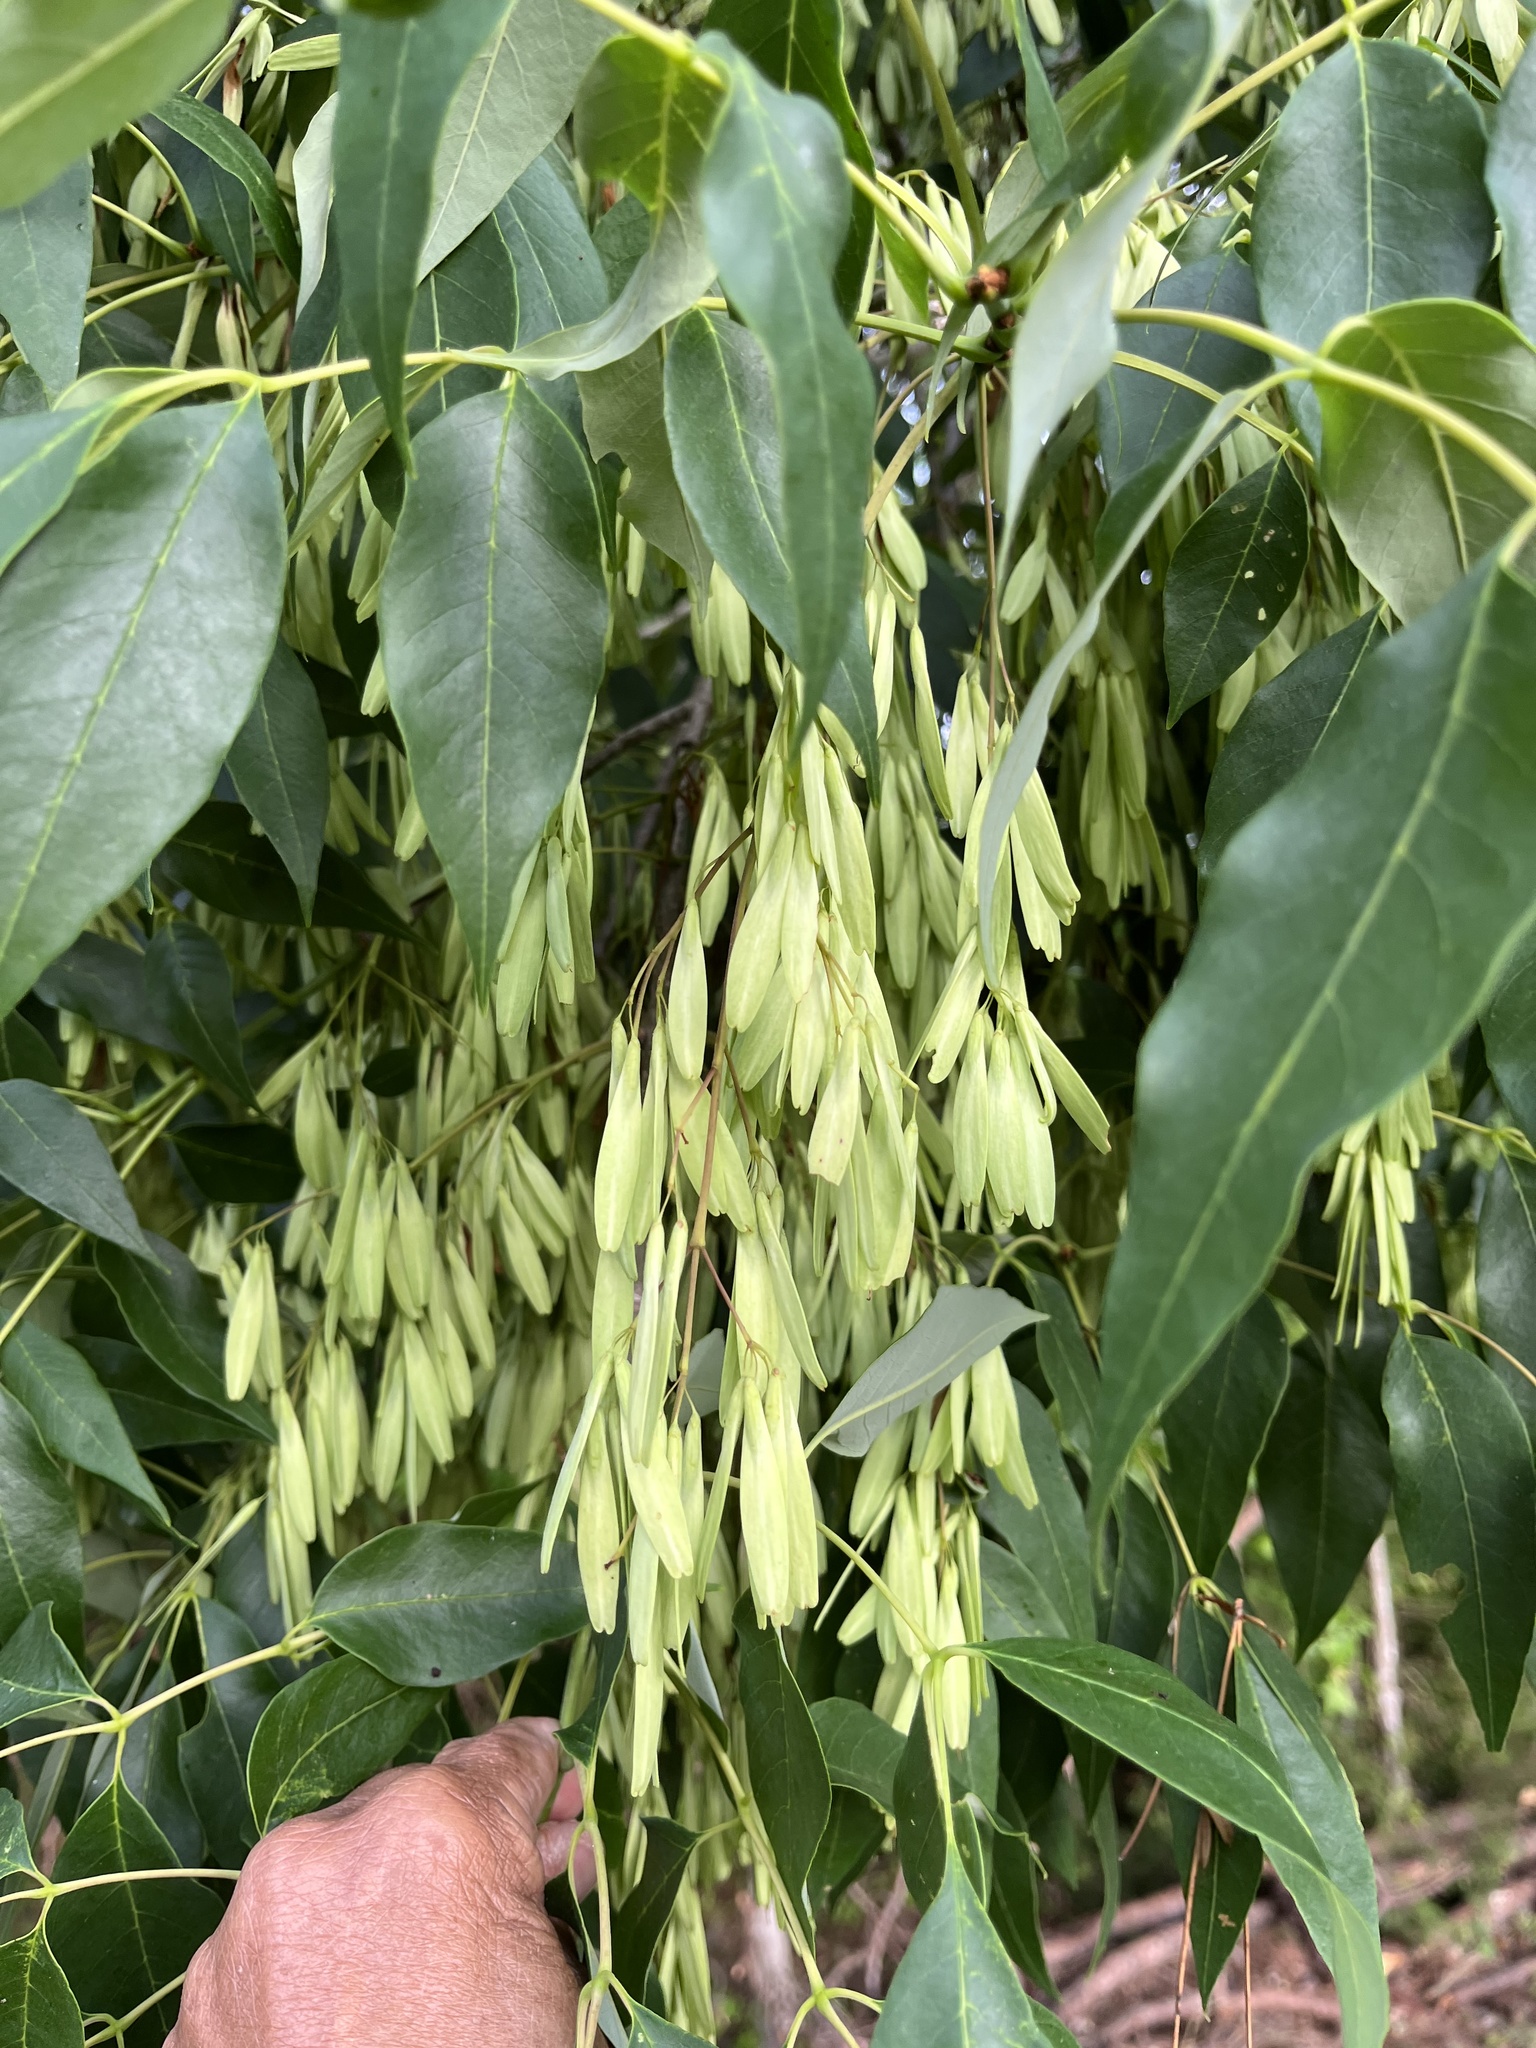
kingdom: Plantae
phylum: Tracheophyta
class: Magnoliopsida
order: Lamiales
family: Oleaceae
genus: Fraxinus
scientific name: Fraxinus americana
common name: White ash
